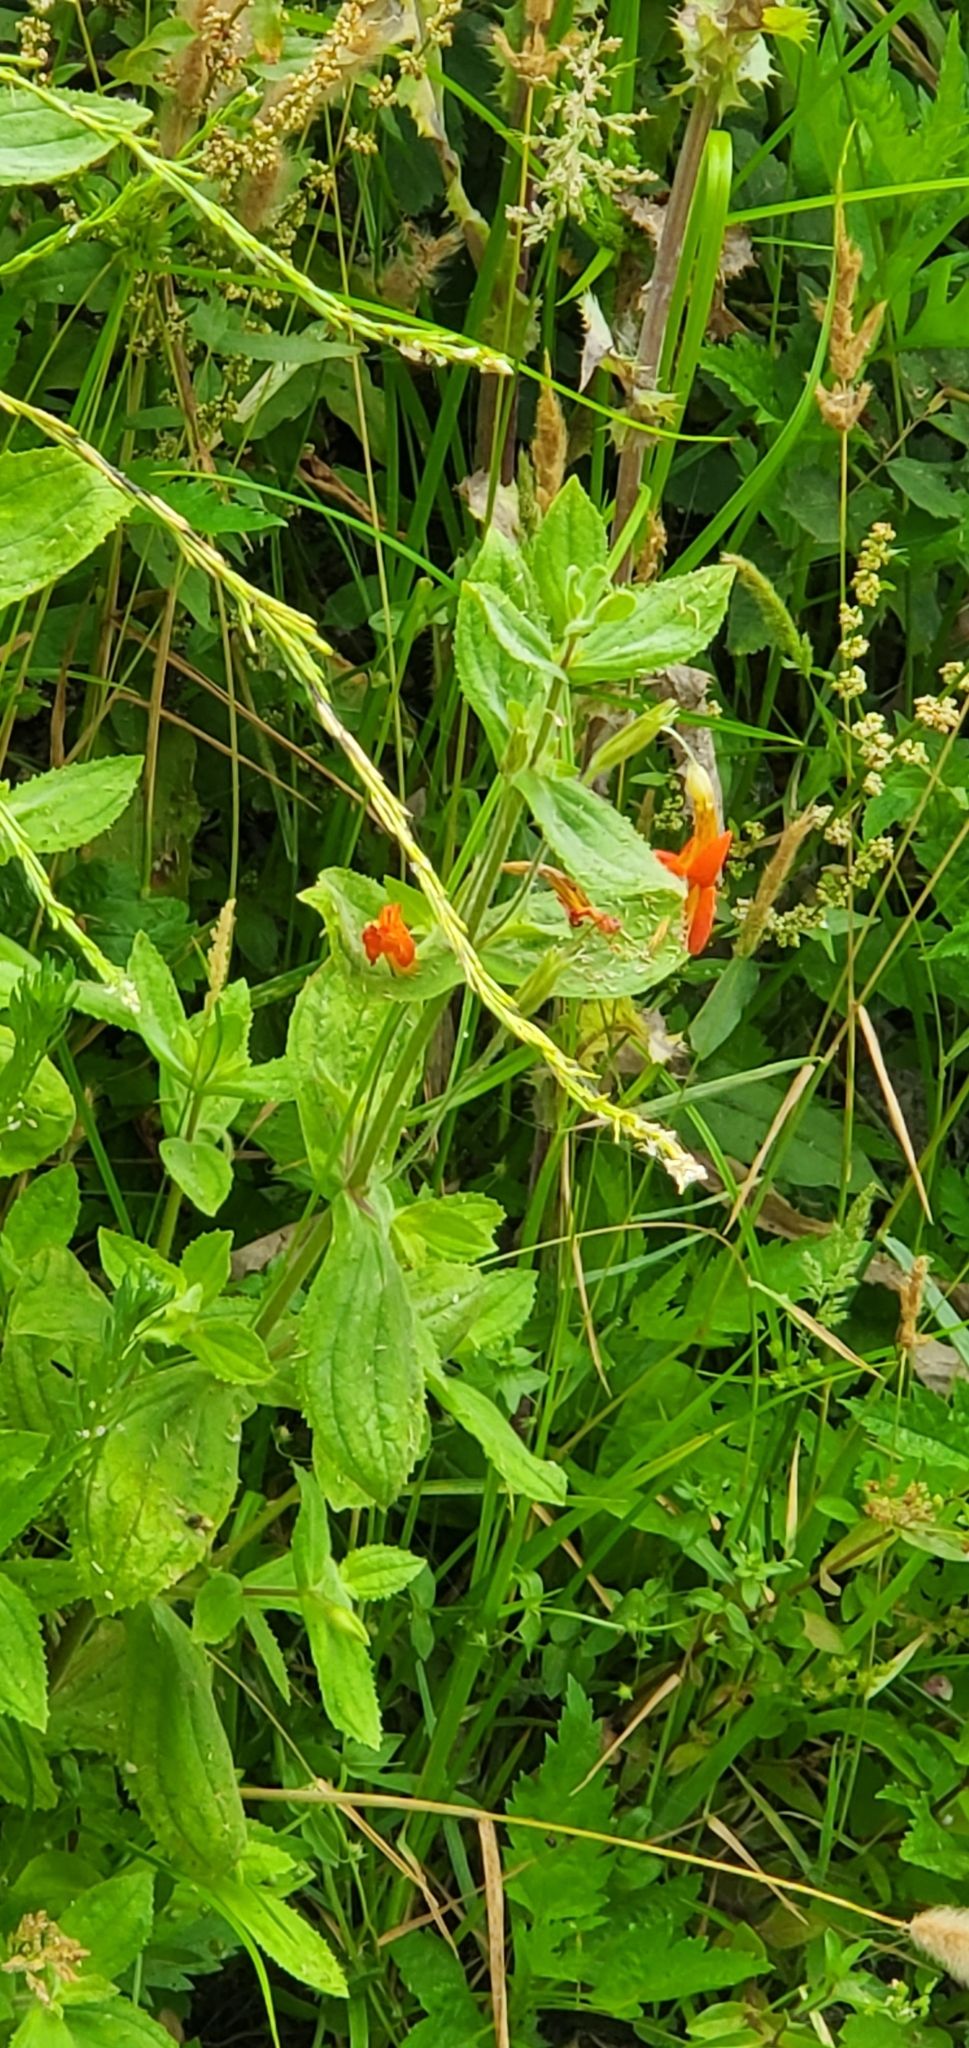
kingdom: Plantae
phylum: Tracheophyta
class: Magnoliopsida
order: Lamiales
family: Phrymaceae
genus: Erythranthe
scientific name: Erythranthe cardinalis
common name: Scarlet monkey-flower
